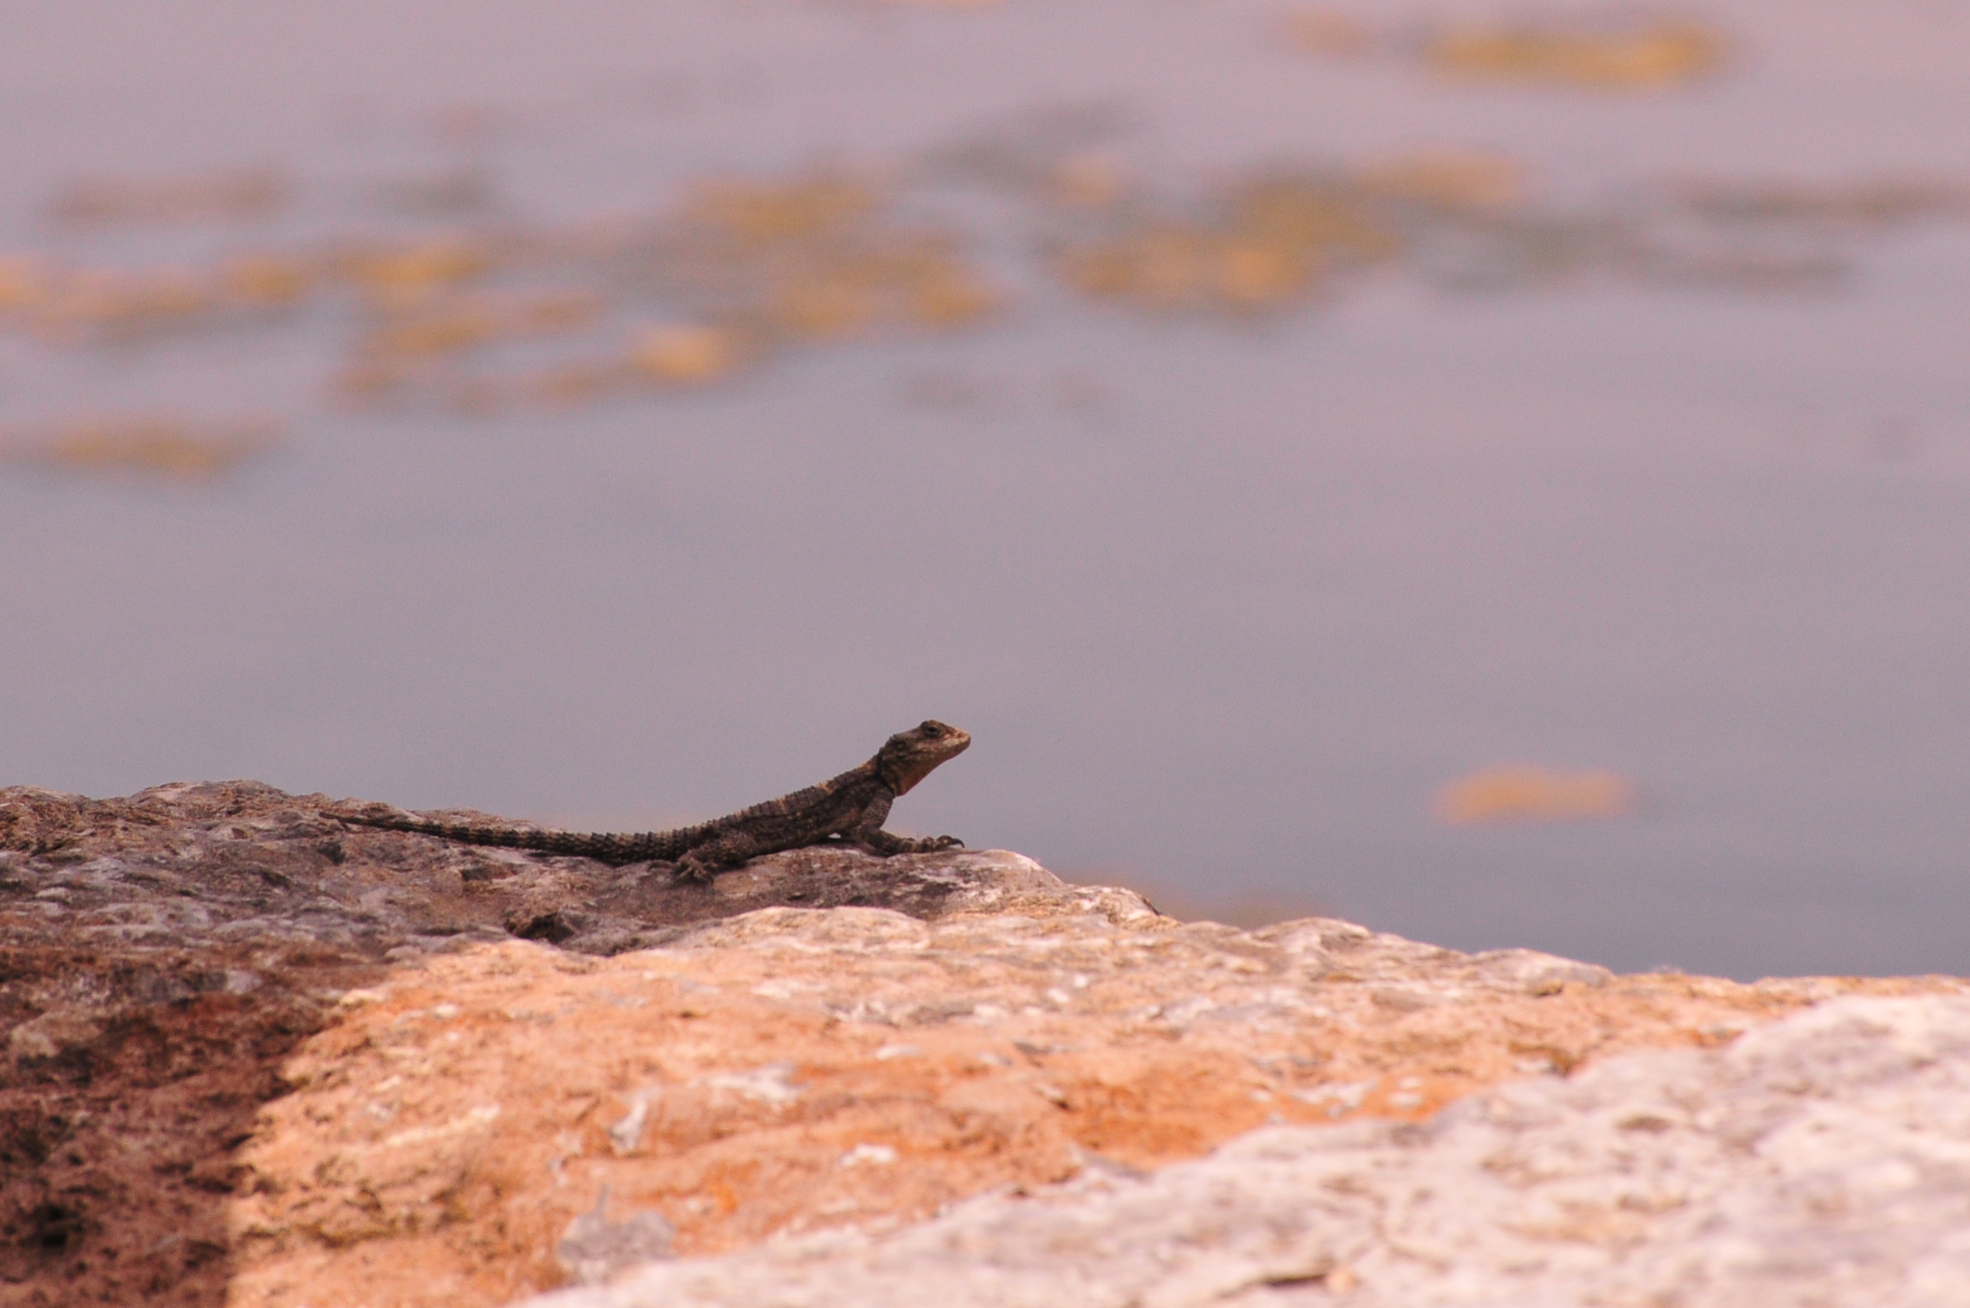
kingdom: Animalia
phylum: Chordata
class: Squamata
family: Agamidae
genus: Stellagama
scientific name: Stellagama stellio
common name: Starred agama
